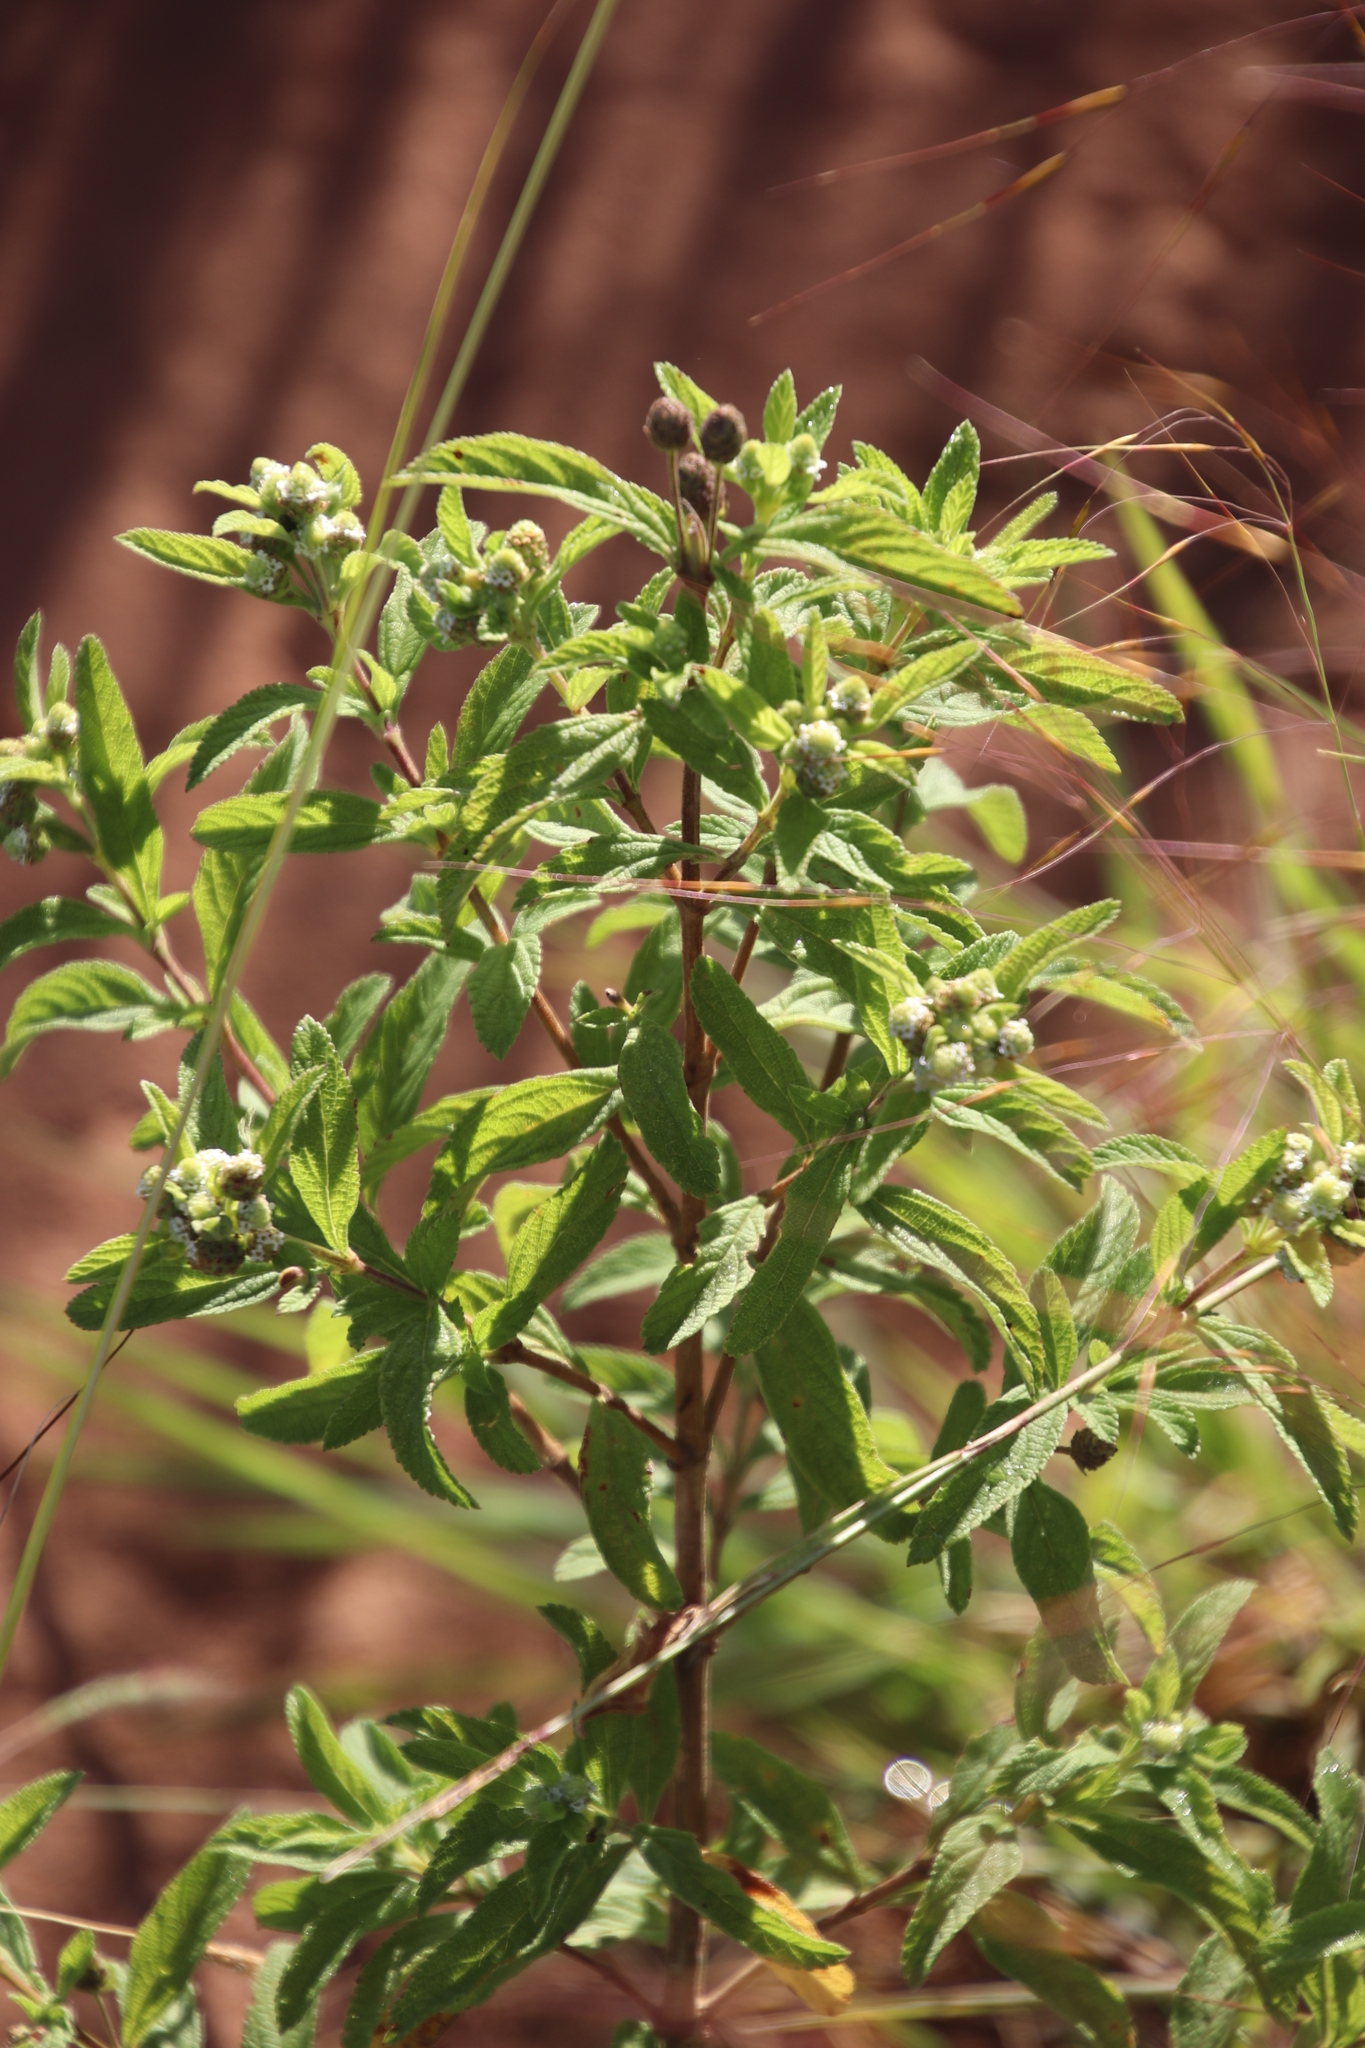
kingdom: Plantae
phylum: Tracheophyta
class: Magnoliopsida
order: Lamiales
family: Verbenaceae
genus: Lippia
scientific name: Lippia javanica
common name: Lemonbush
